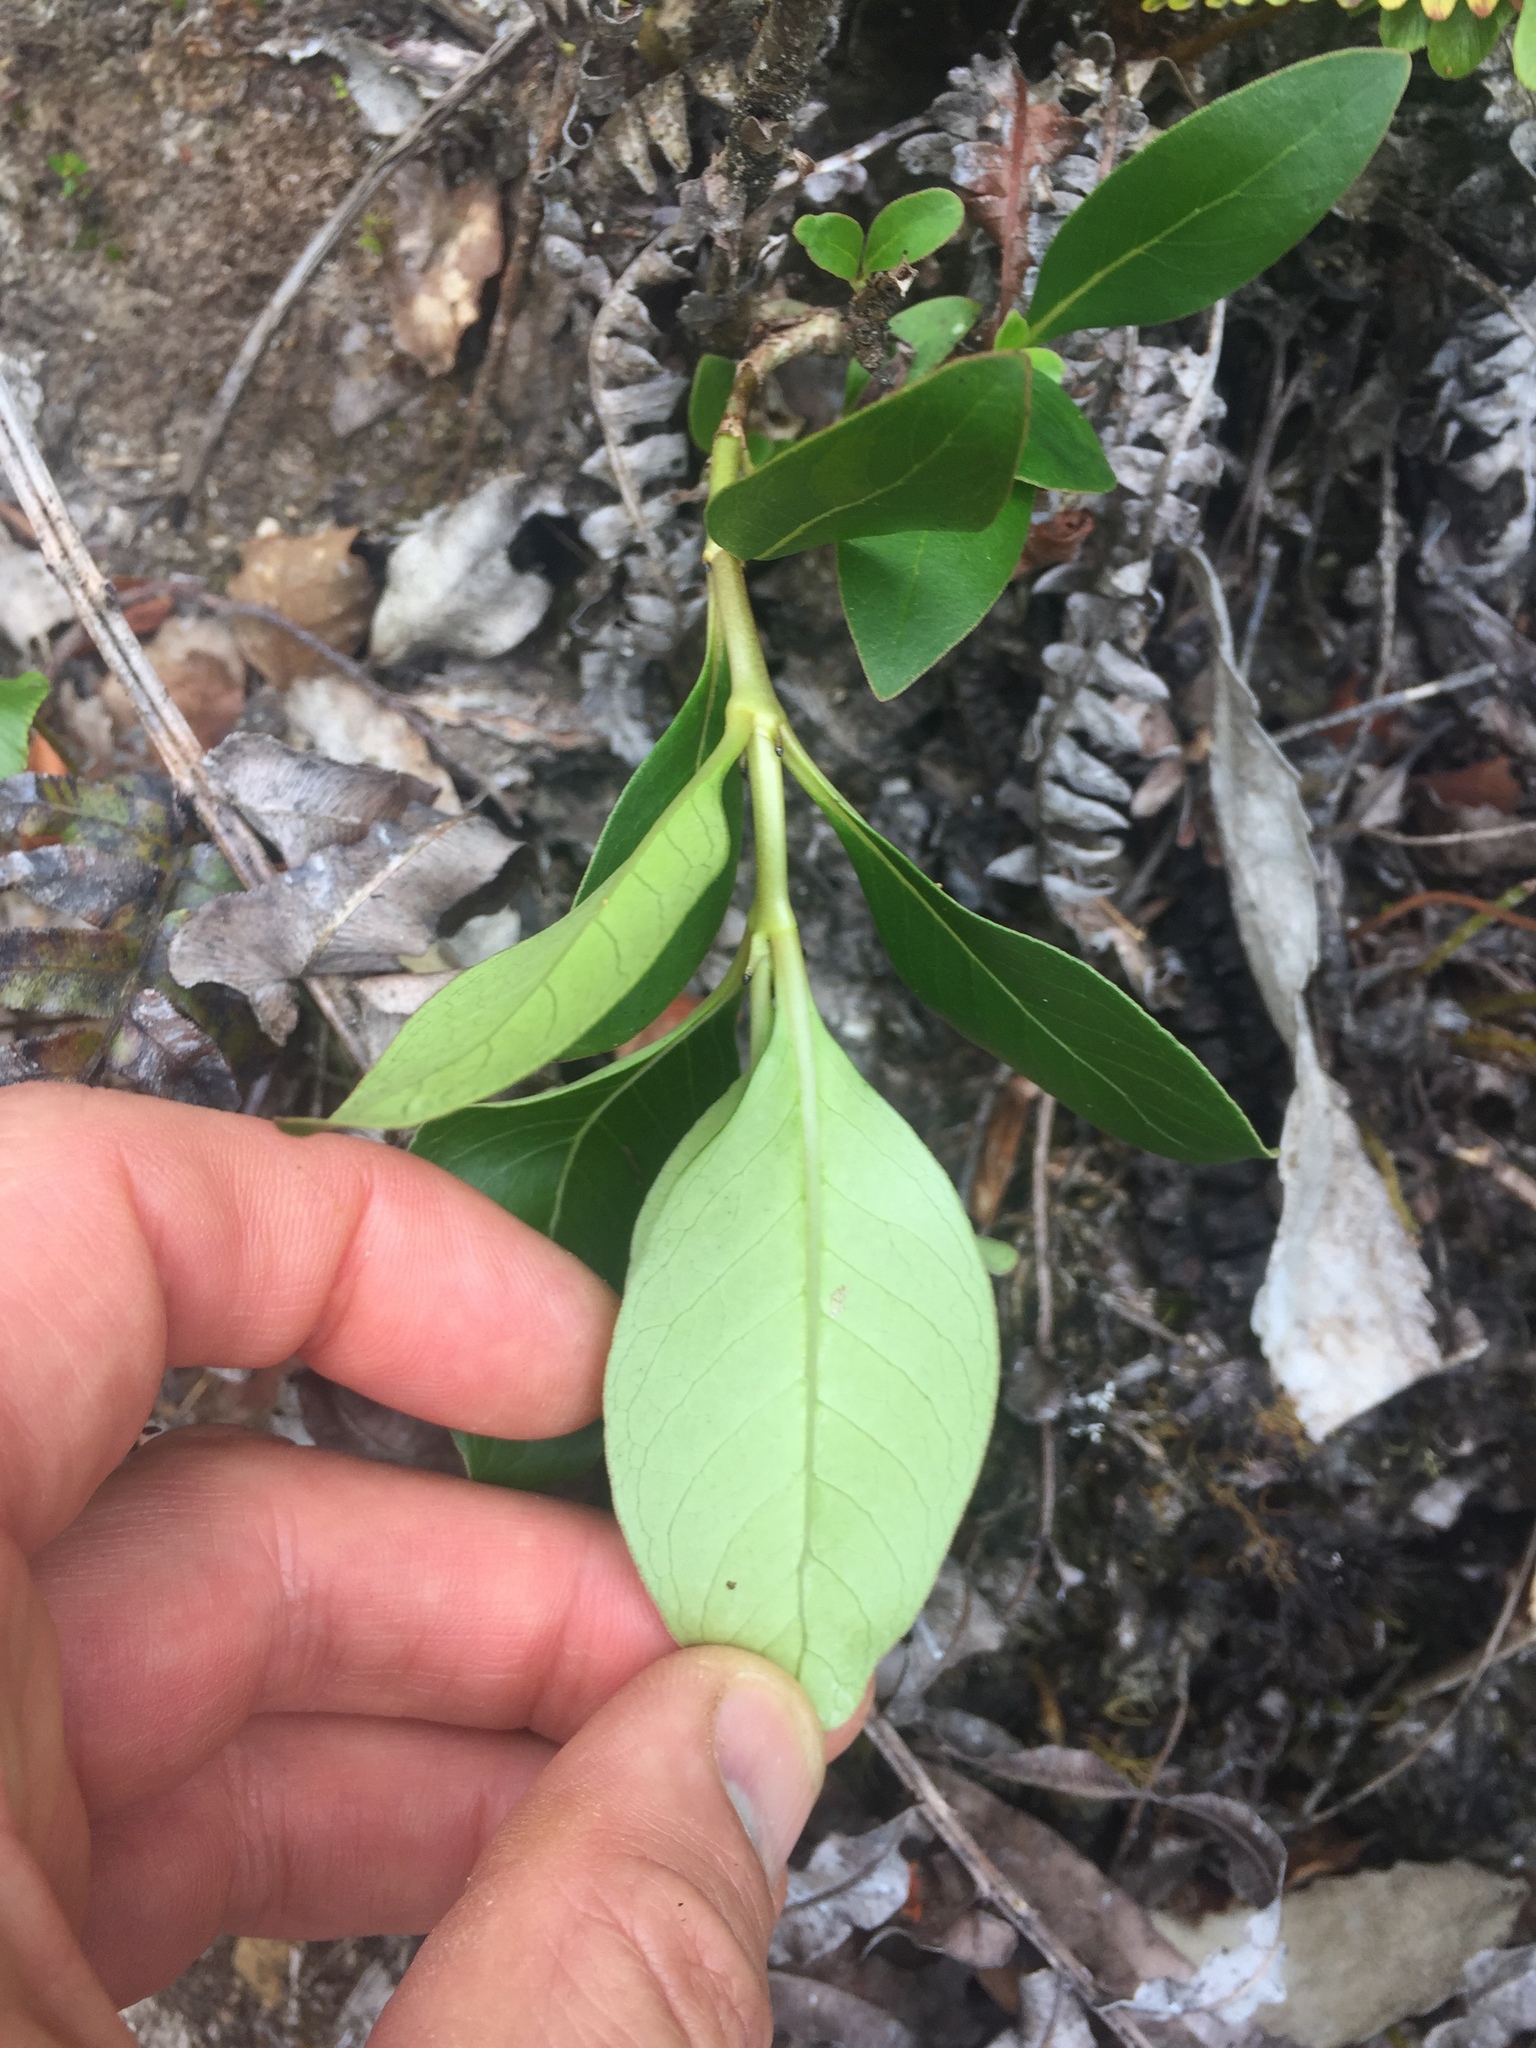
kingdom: Plantae
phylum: Tracheophyta
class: Magnoliopsida
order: Gentianales
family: Rubiaceae
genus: Coprosma
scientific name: Coprosma robusta
